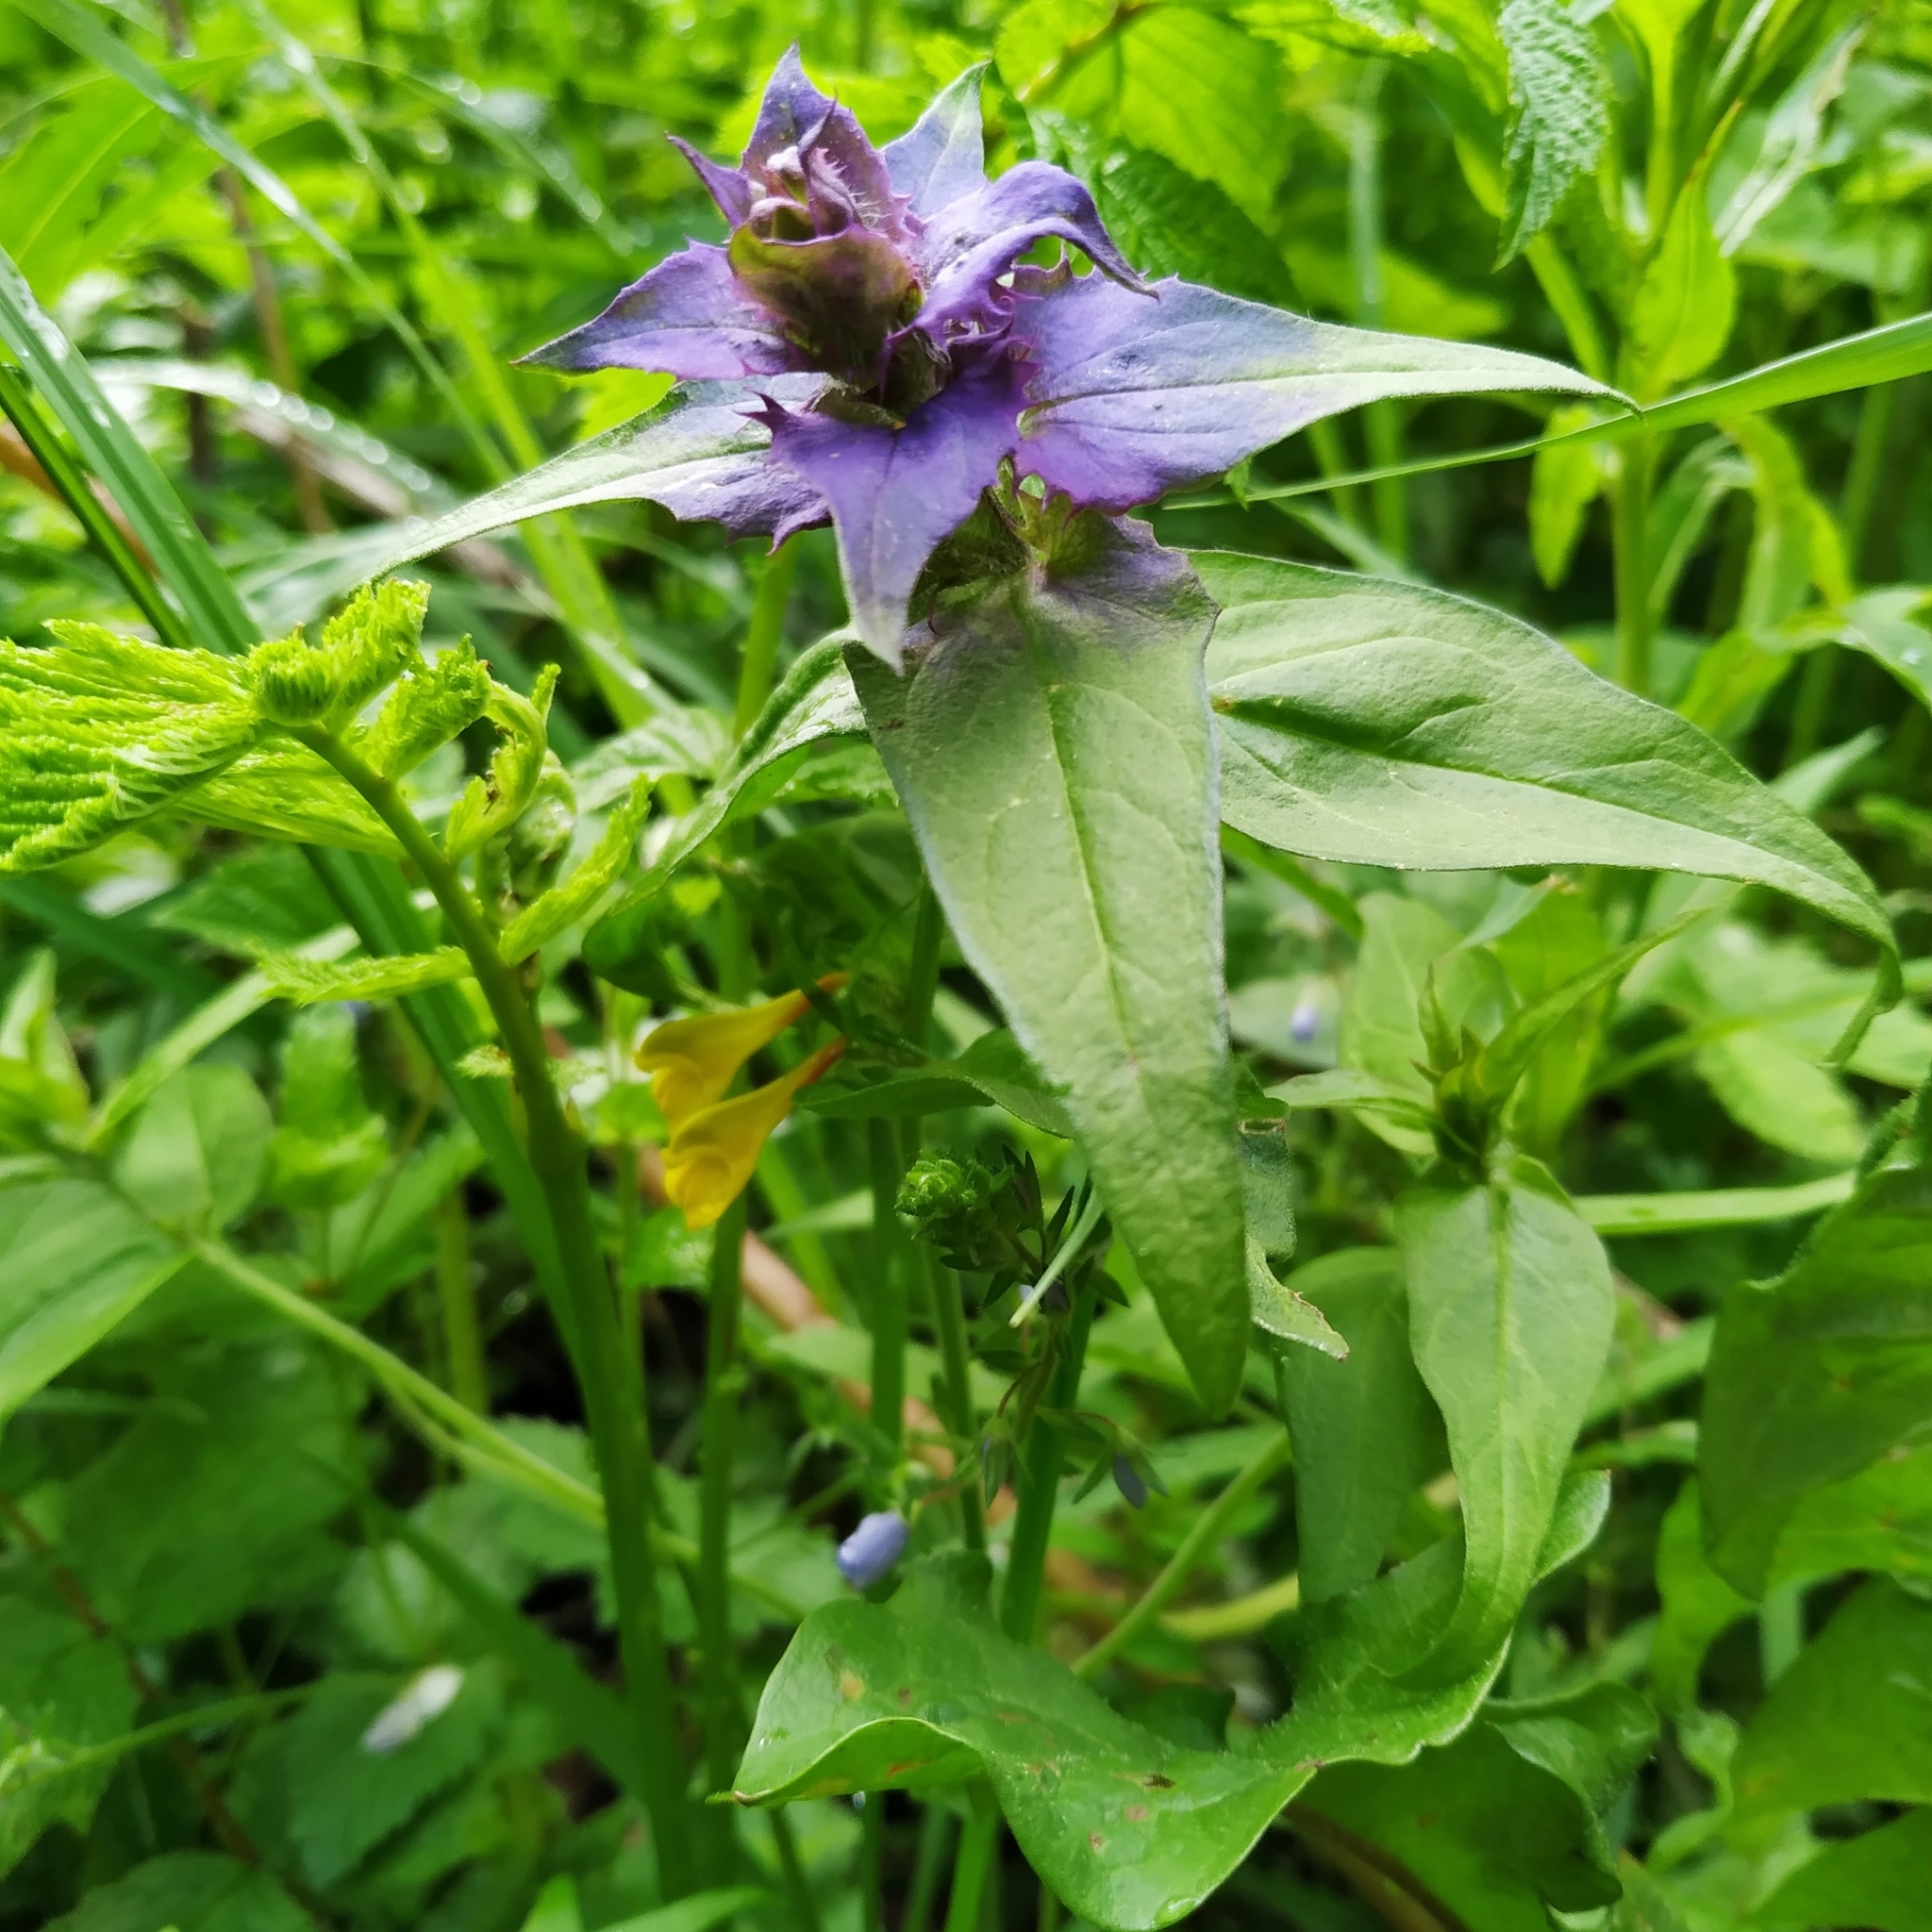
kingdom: Plantae
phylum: Tracheophyta
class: Magnoliopsida
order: Lamiales
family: Orobanchaceae
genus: Melampyrum
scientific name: Melampyrum nemorosum
